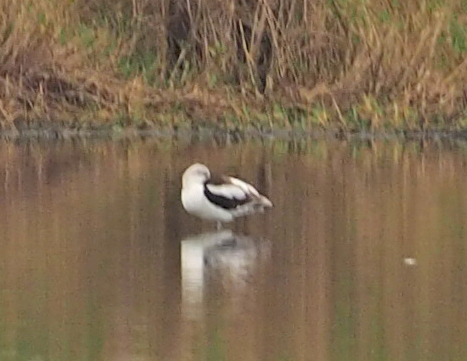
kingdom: Animalia
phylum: Chordata
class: Aves
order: Charadriiformes
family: Recurvirostridae
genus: Recurvirostra
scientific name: Recurvirostra americana
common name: American avocet
